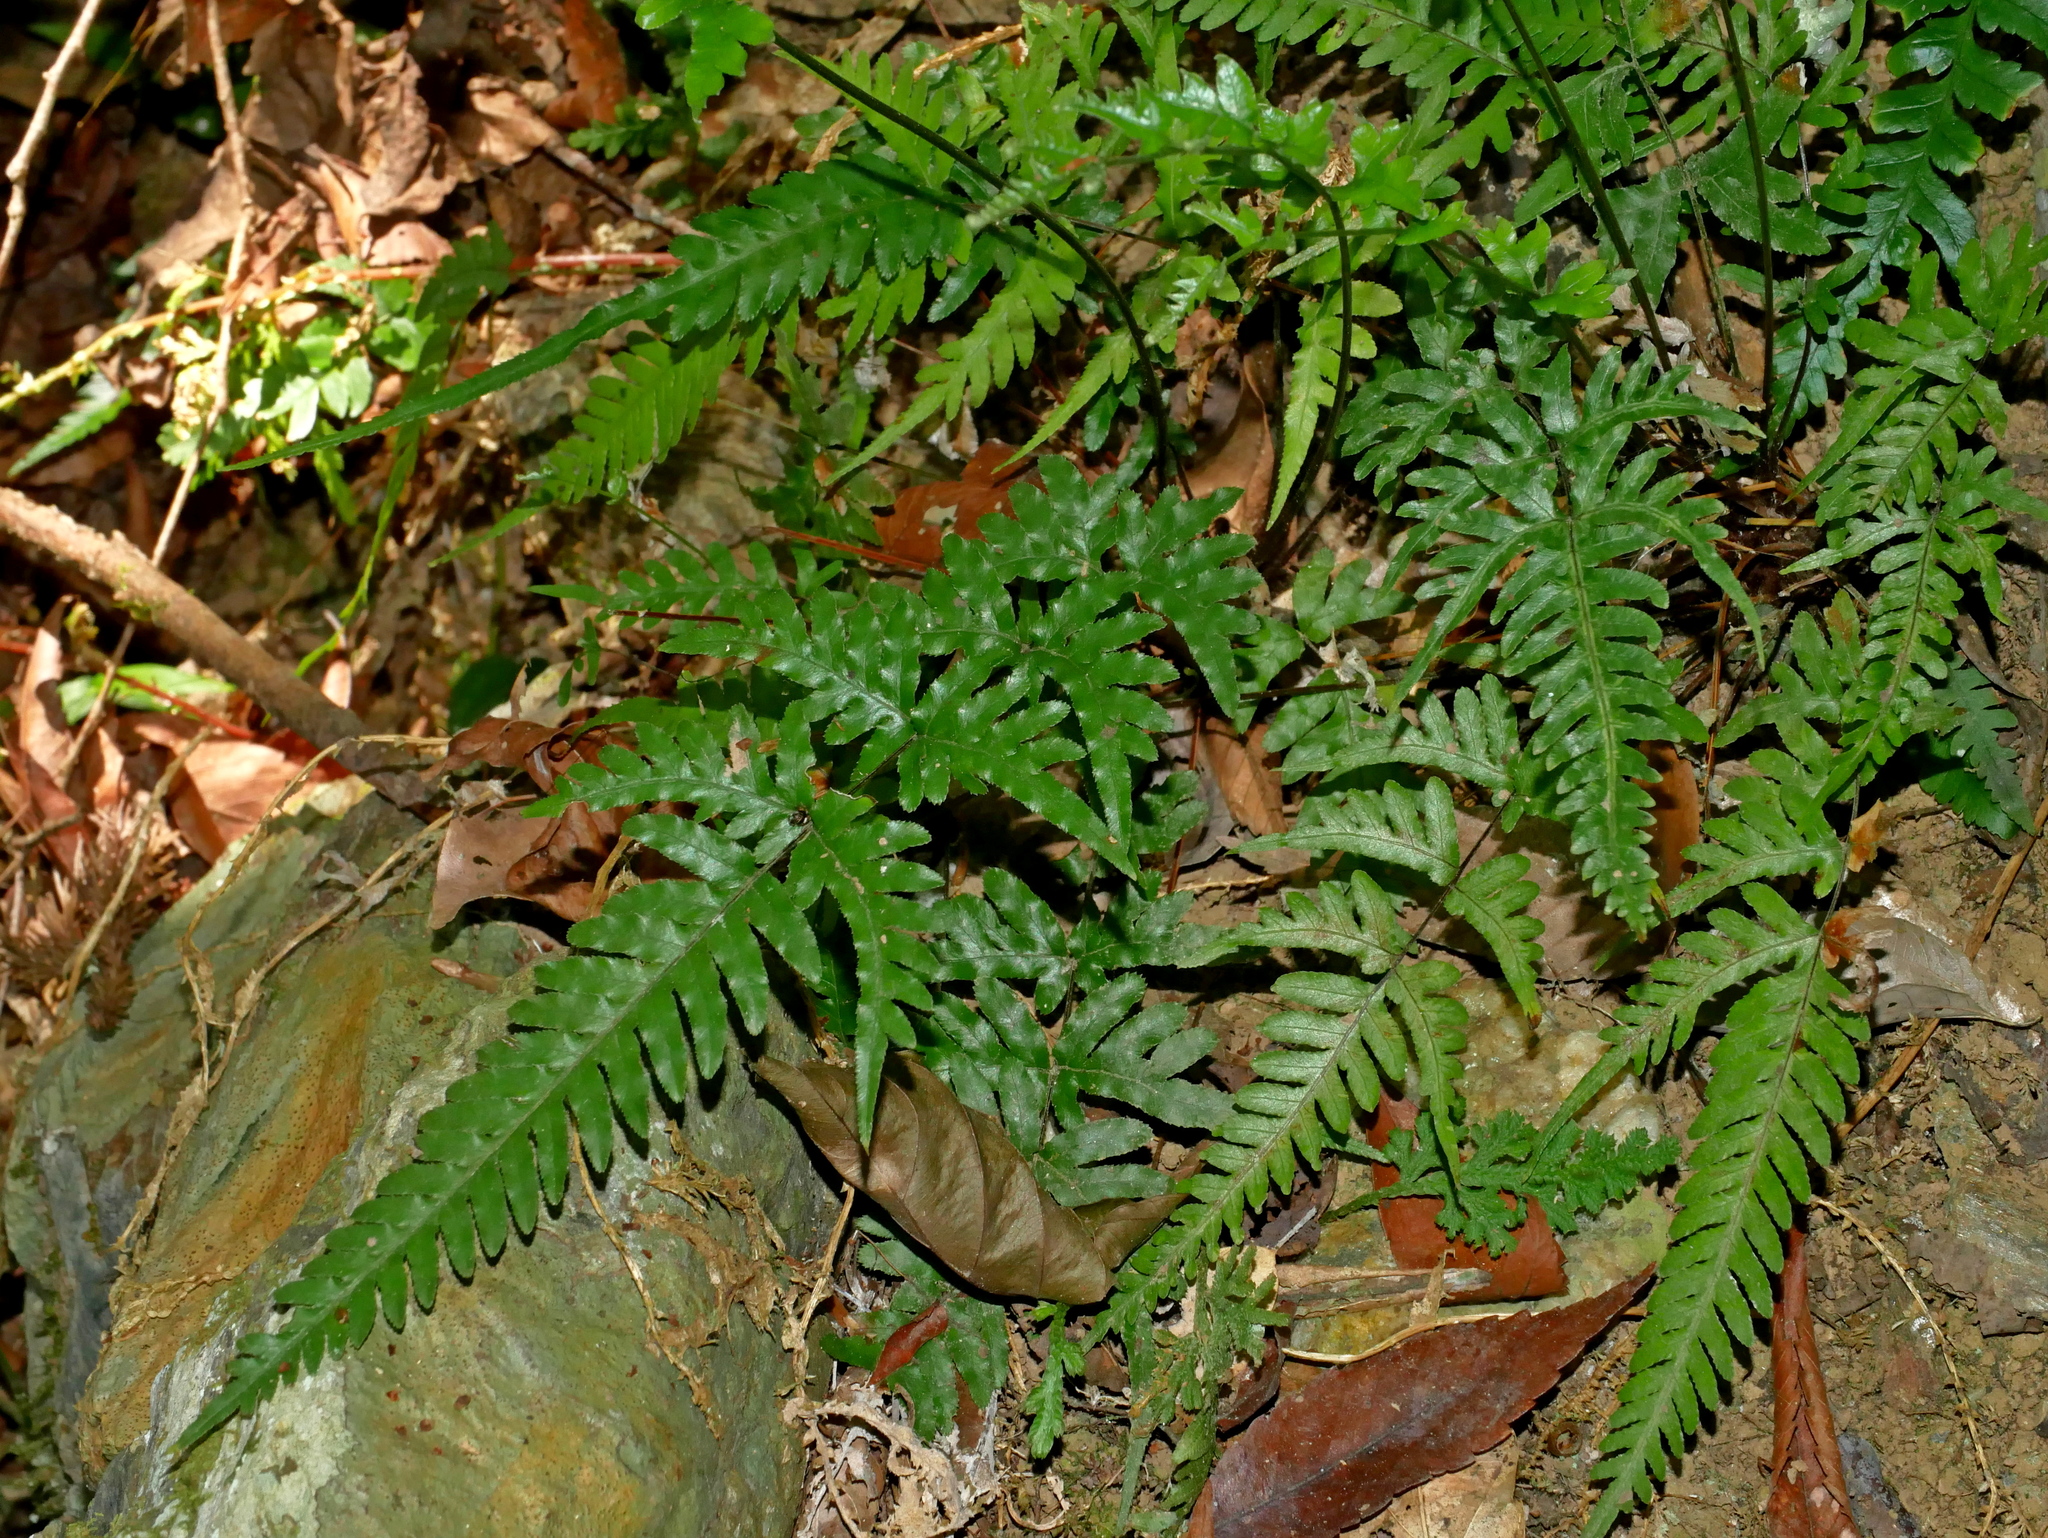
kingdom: Plantae
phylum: Tracheophyta
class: Polypodiopsida
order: Polypodiales
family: Pteridaceae
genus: Pteris
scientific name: Pteris dispar
